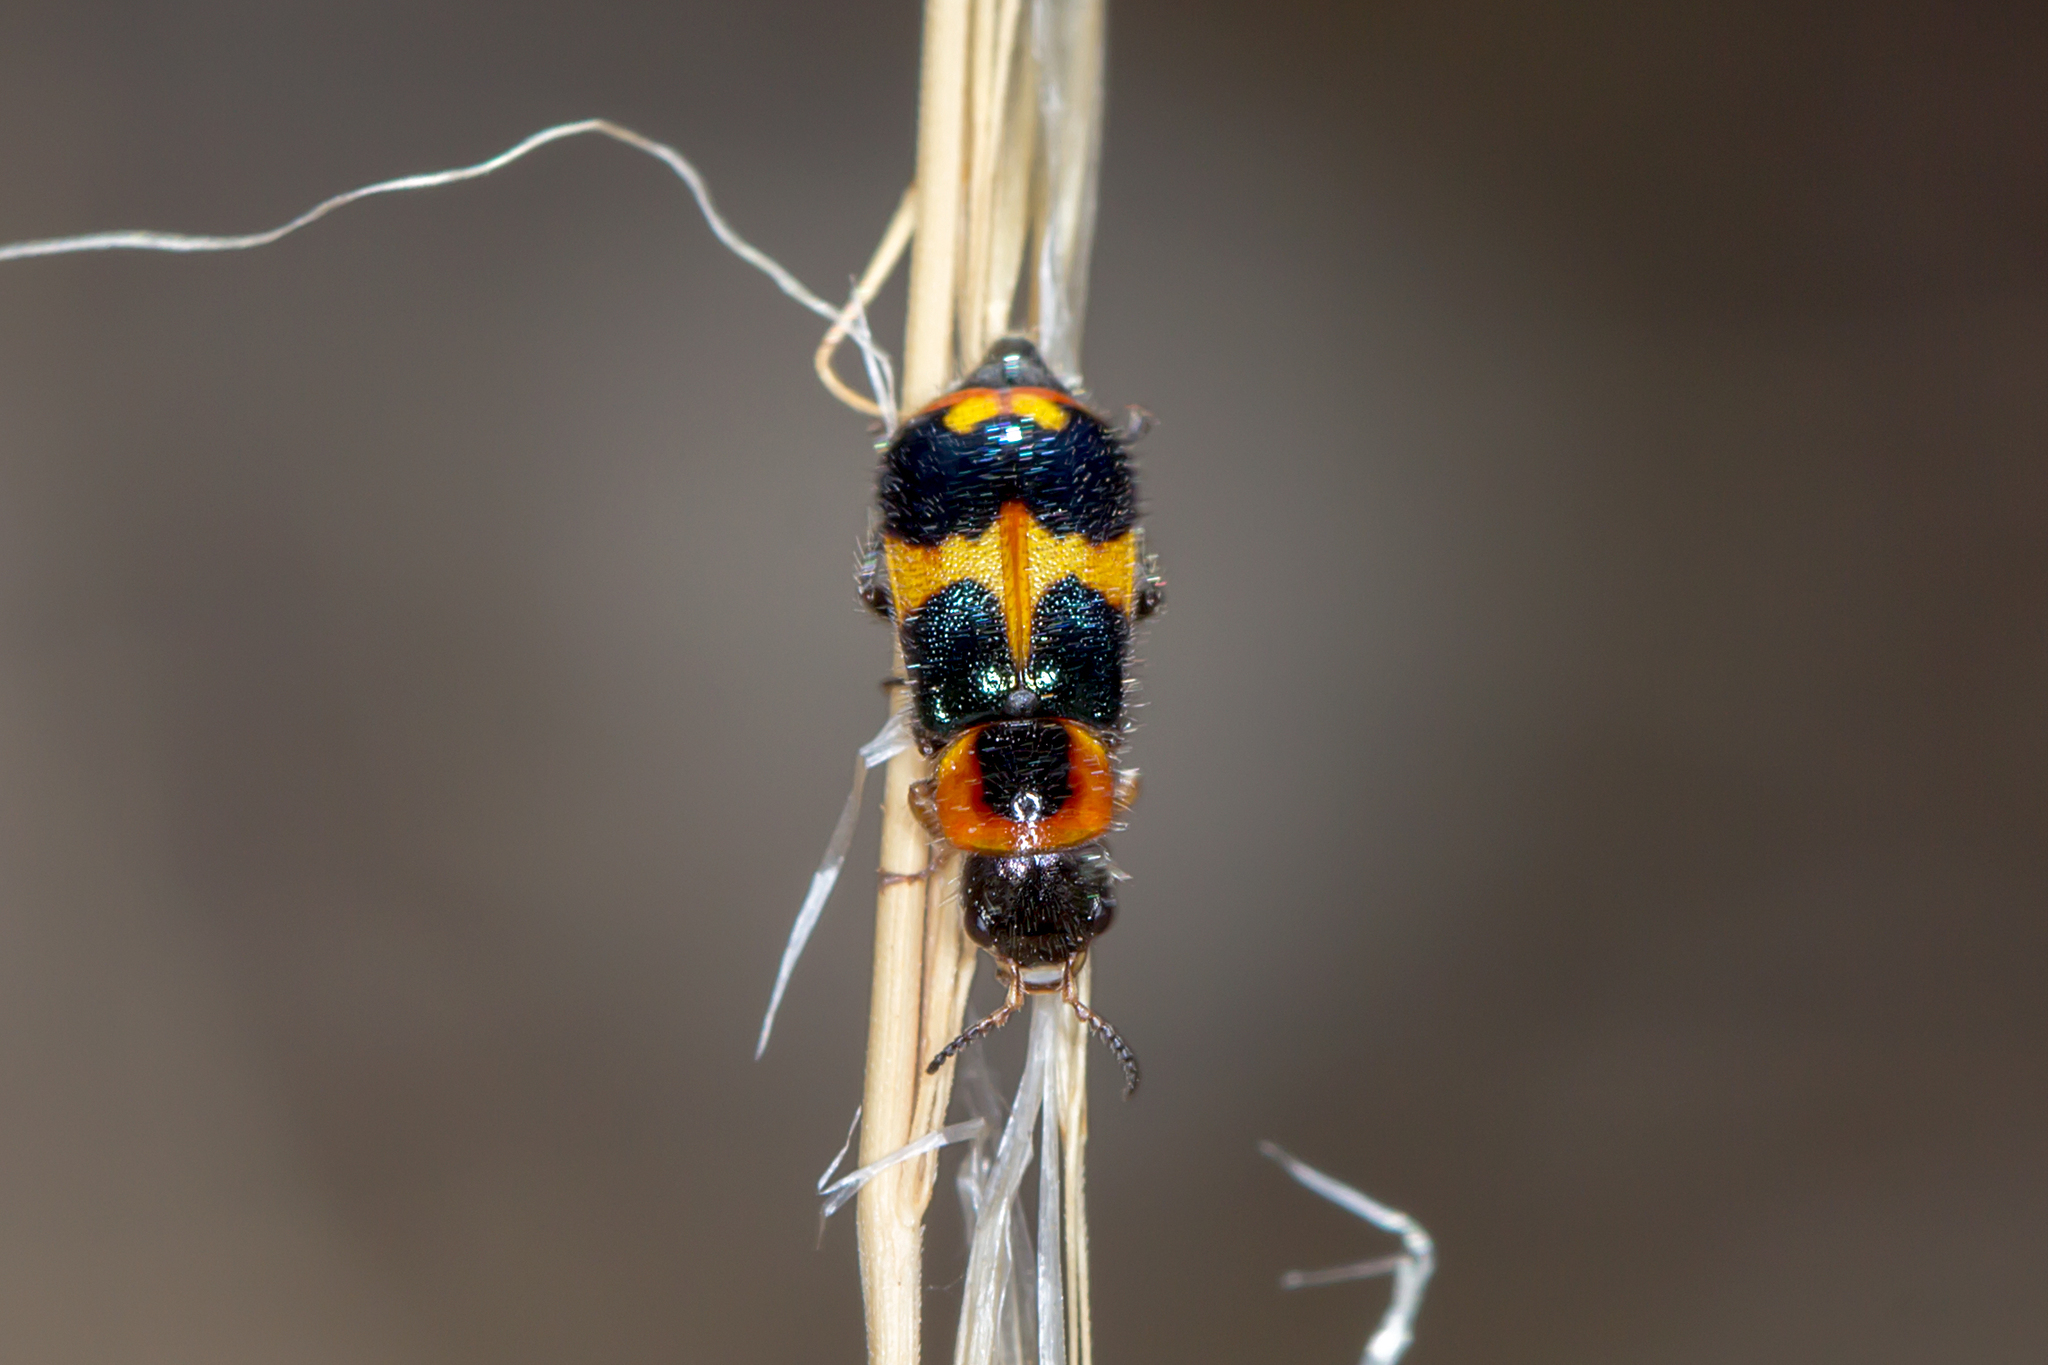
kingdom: Animalia
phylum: Arthropoda
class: Insecta
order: Coleoptera
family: Melyridae
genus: Dicranolaius
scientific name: Dicranolaius
